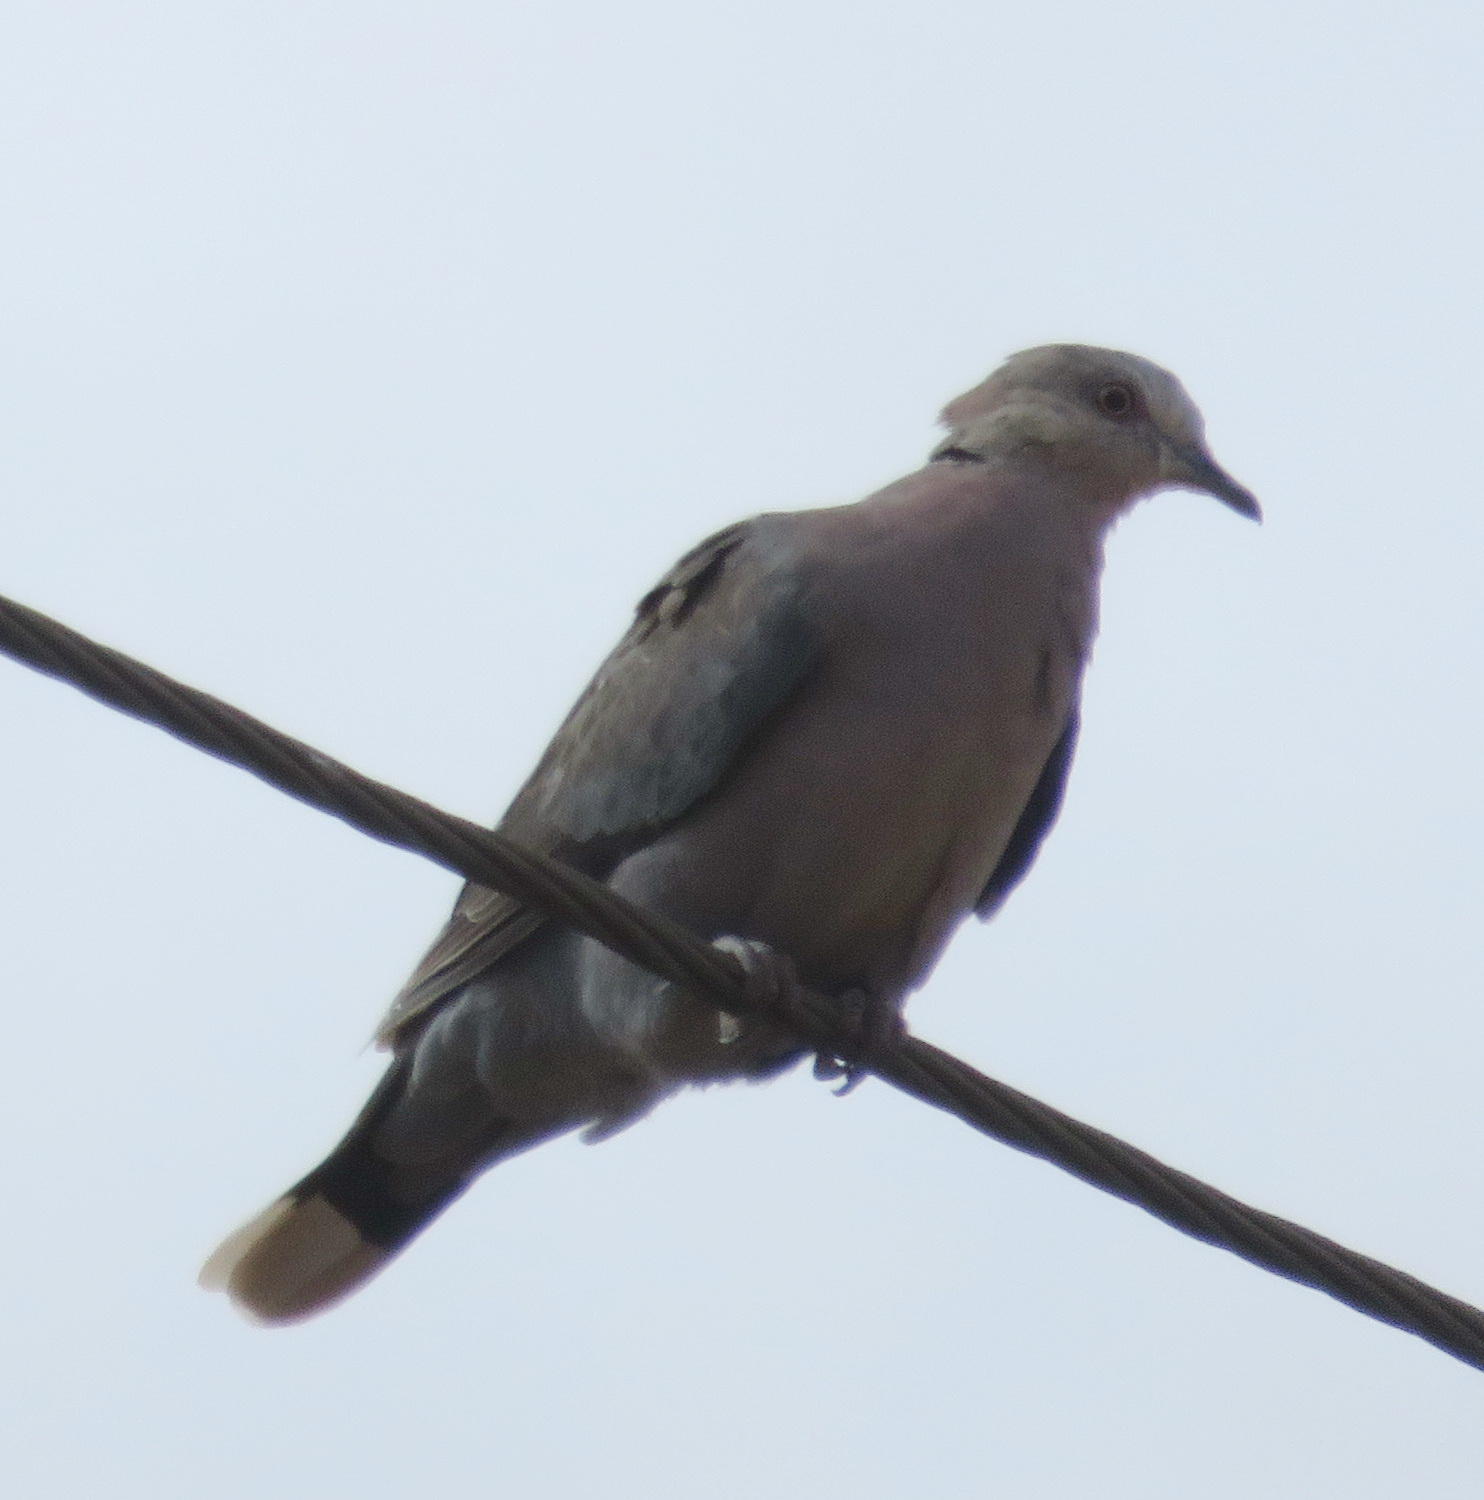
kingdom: Animalia
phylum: Chordata
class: Aves
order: Columbiformes
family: Columbidae
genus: Streptopelia
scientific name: Streptopelia semitorquata
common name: Red-eyed dove
